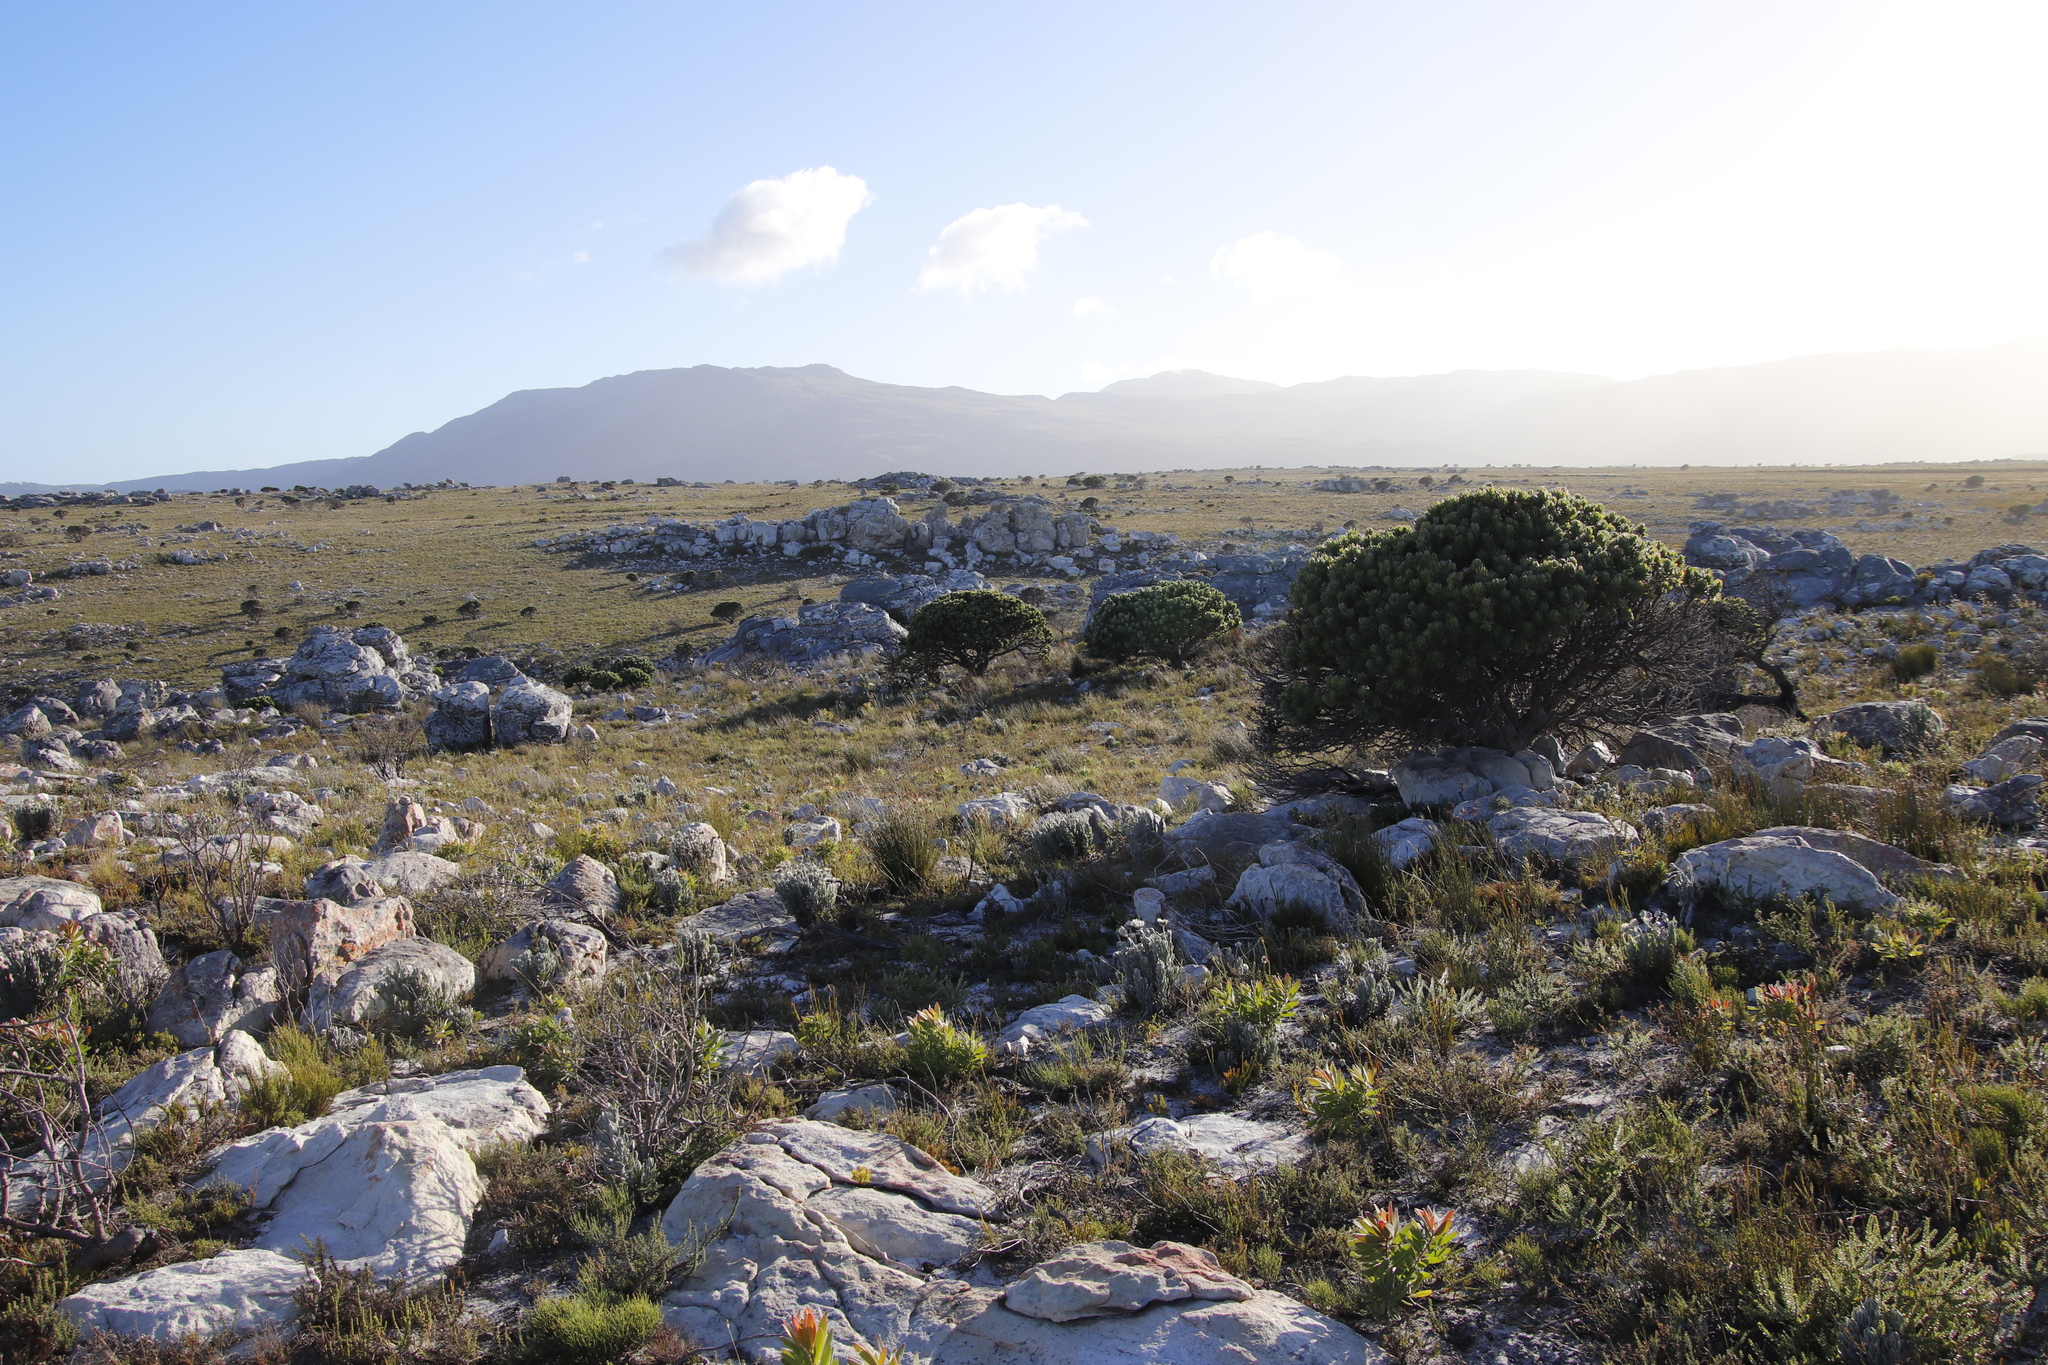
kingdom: Plantae
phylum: Tracheophyta
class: Magnoliopsida
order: Proteales
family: Proteaceae
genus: Mimetes
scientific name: Mimetes fimbriifolius
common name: Fringed bottlebrush
